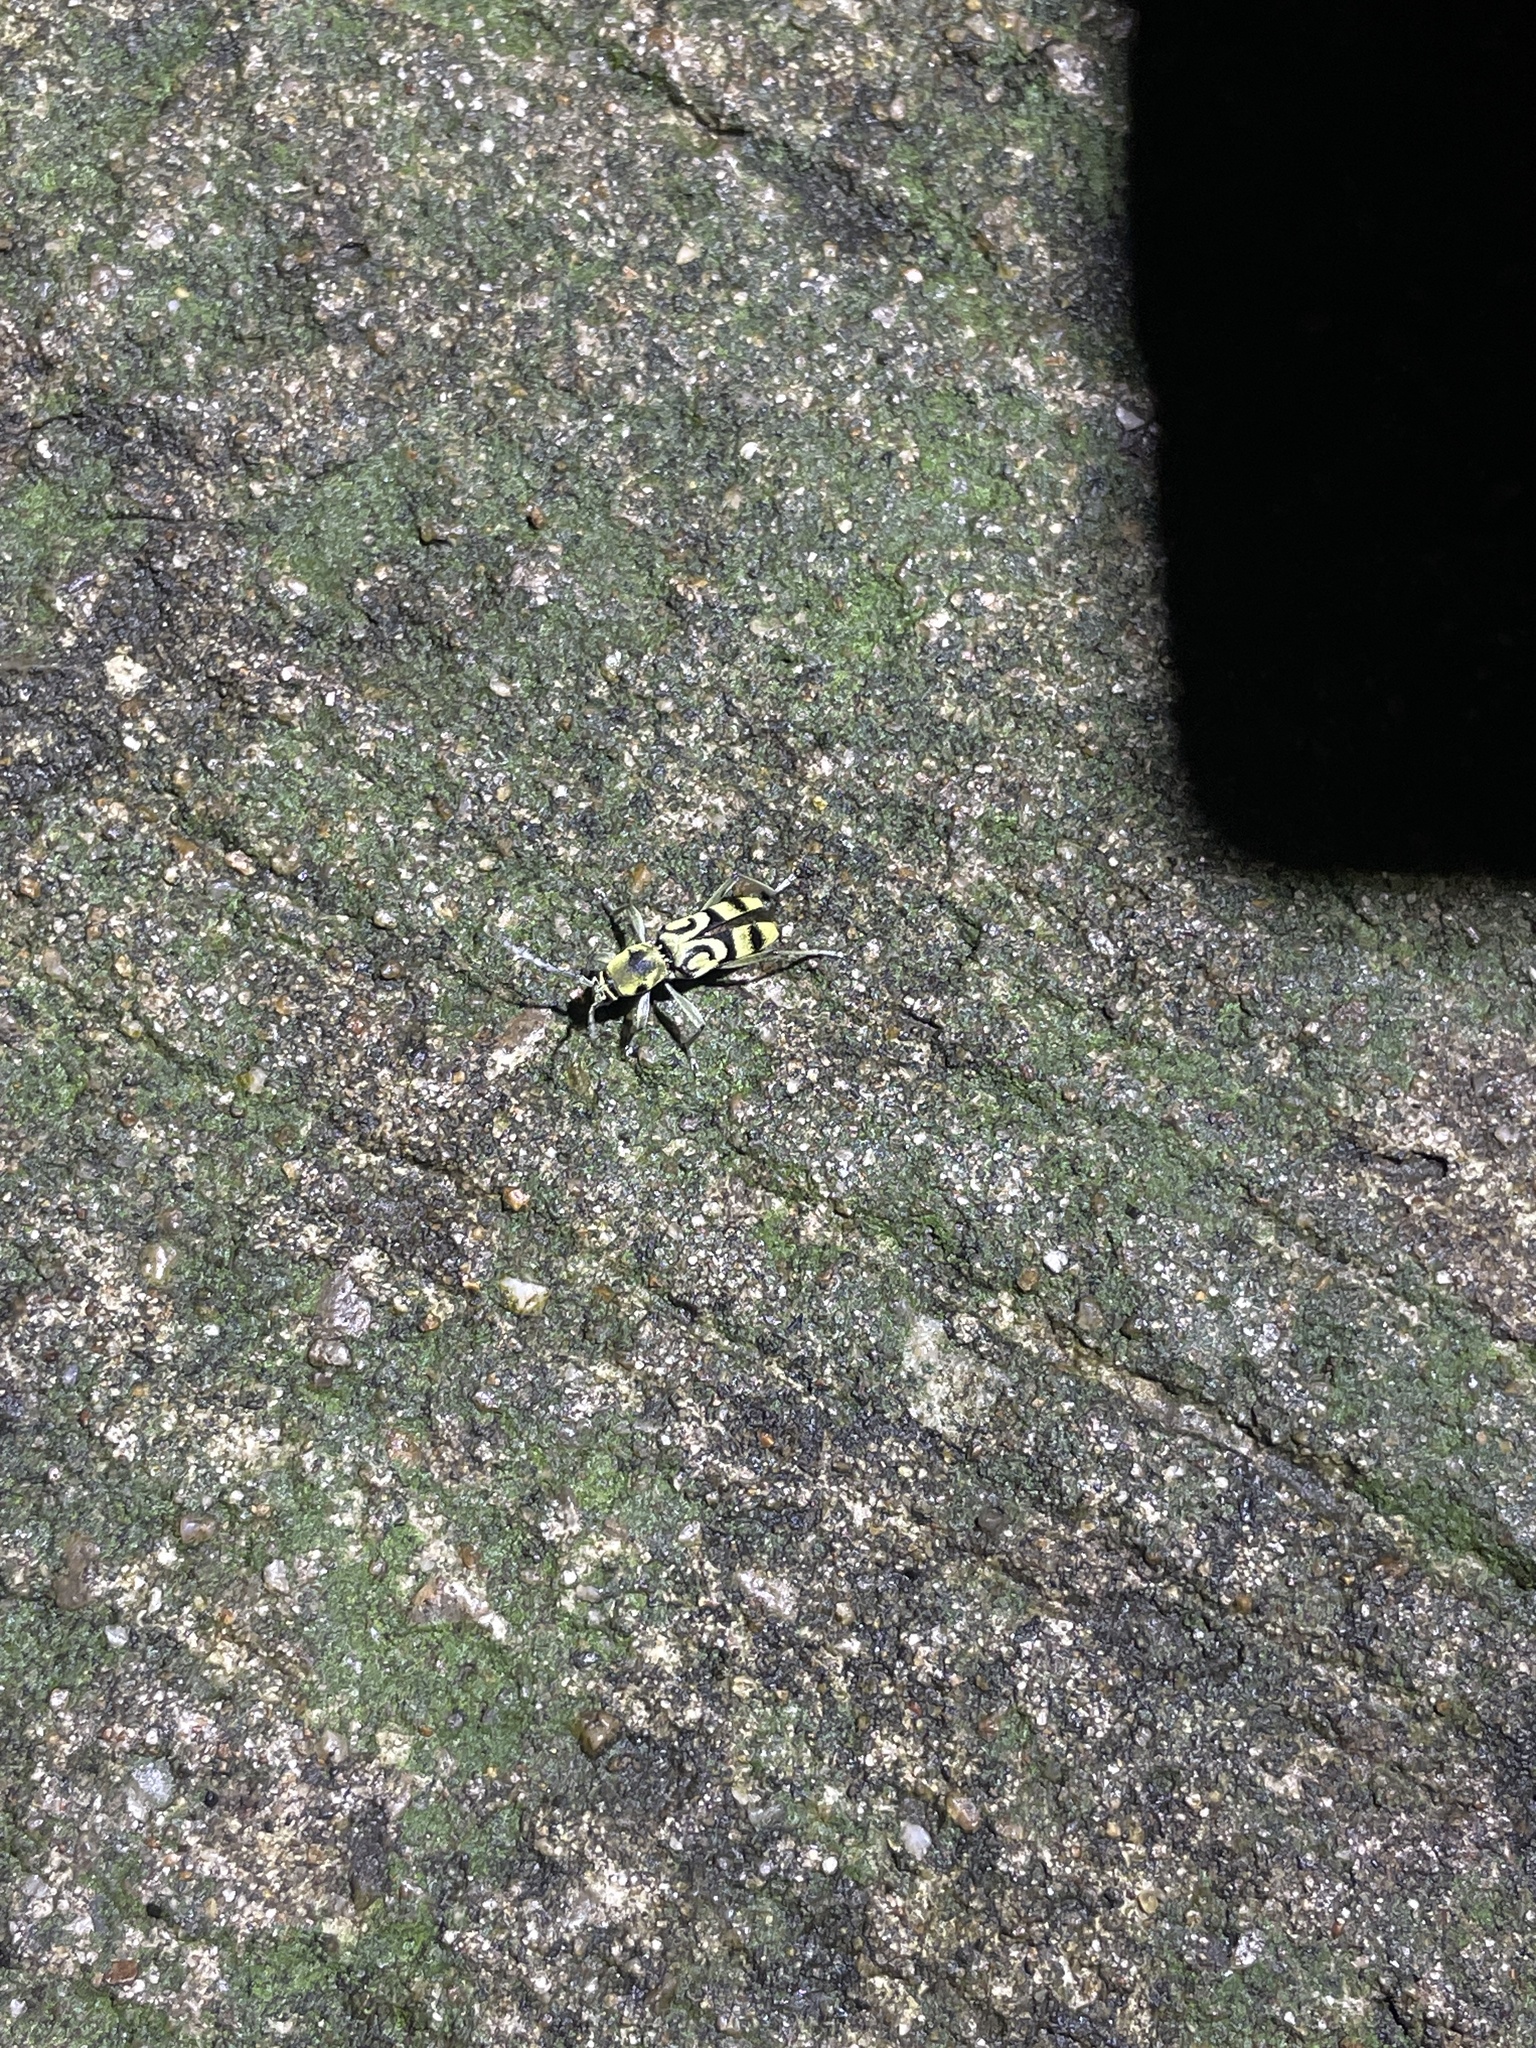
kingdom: Animalia
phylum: Arthropoda
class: Insecta
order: Coleoptera
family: Cerambycidae
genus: Chlorophorus
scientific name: Chlorophorus hainanicus
